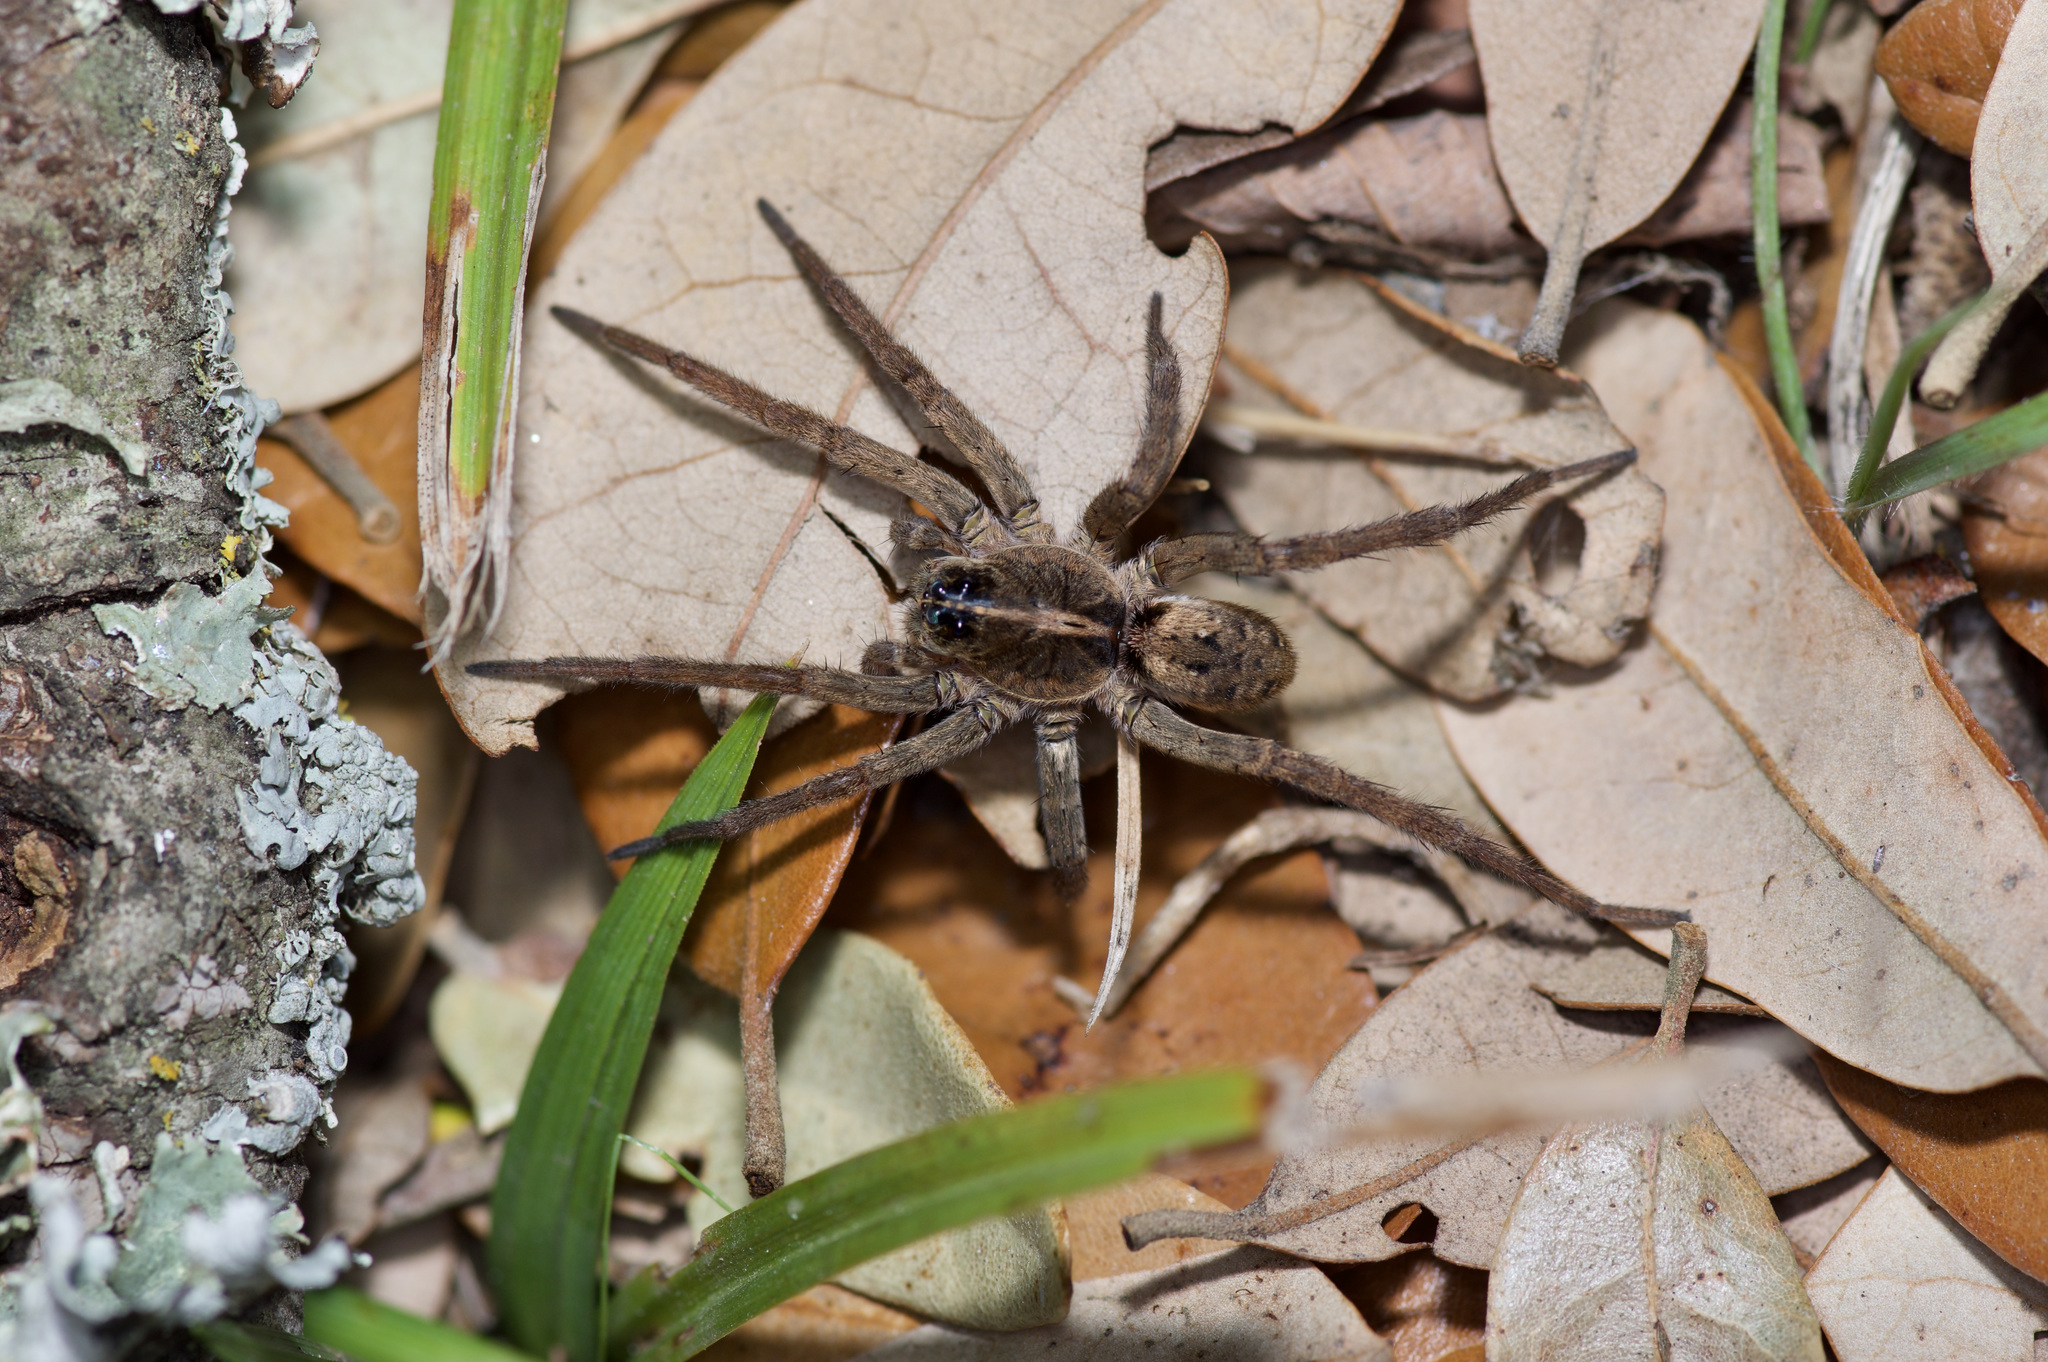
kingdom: Animalia
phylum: Arthropoda
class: Arachnida
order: Araneae
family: Lycosidae
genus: Tigrosa
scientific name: Tigrosa georgicola
